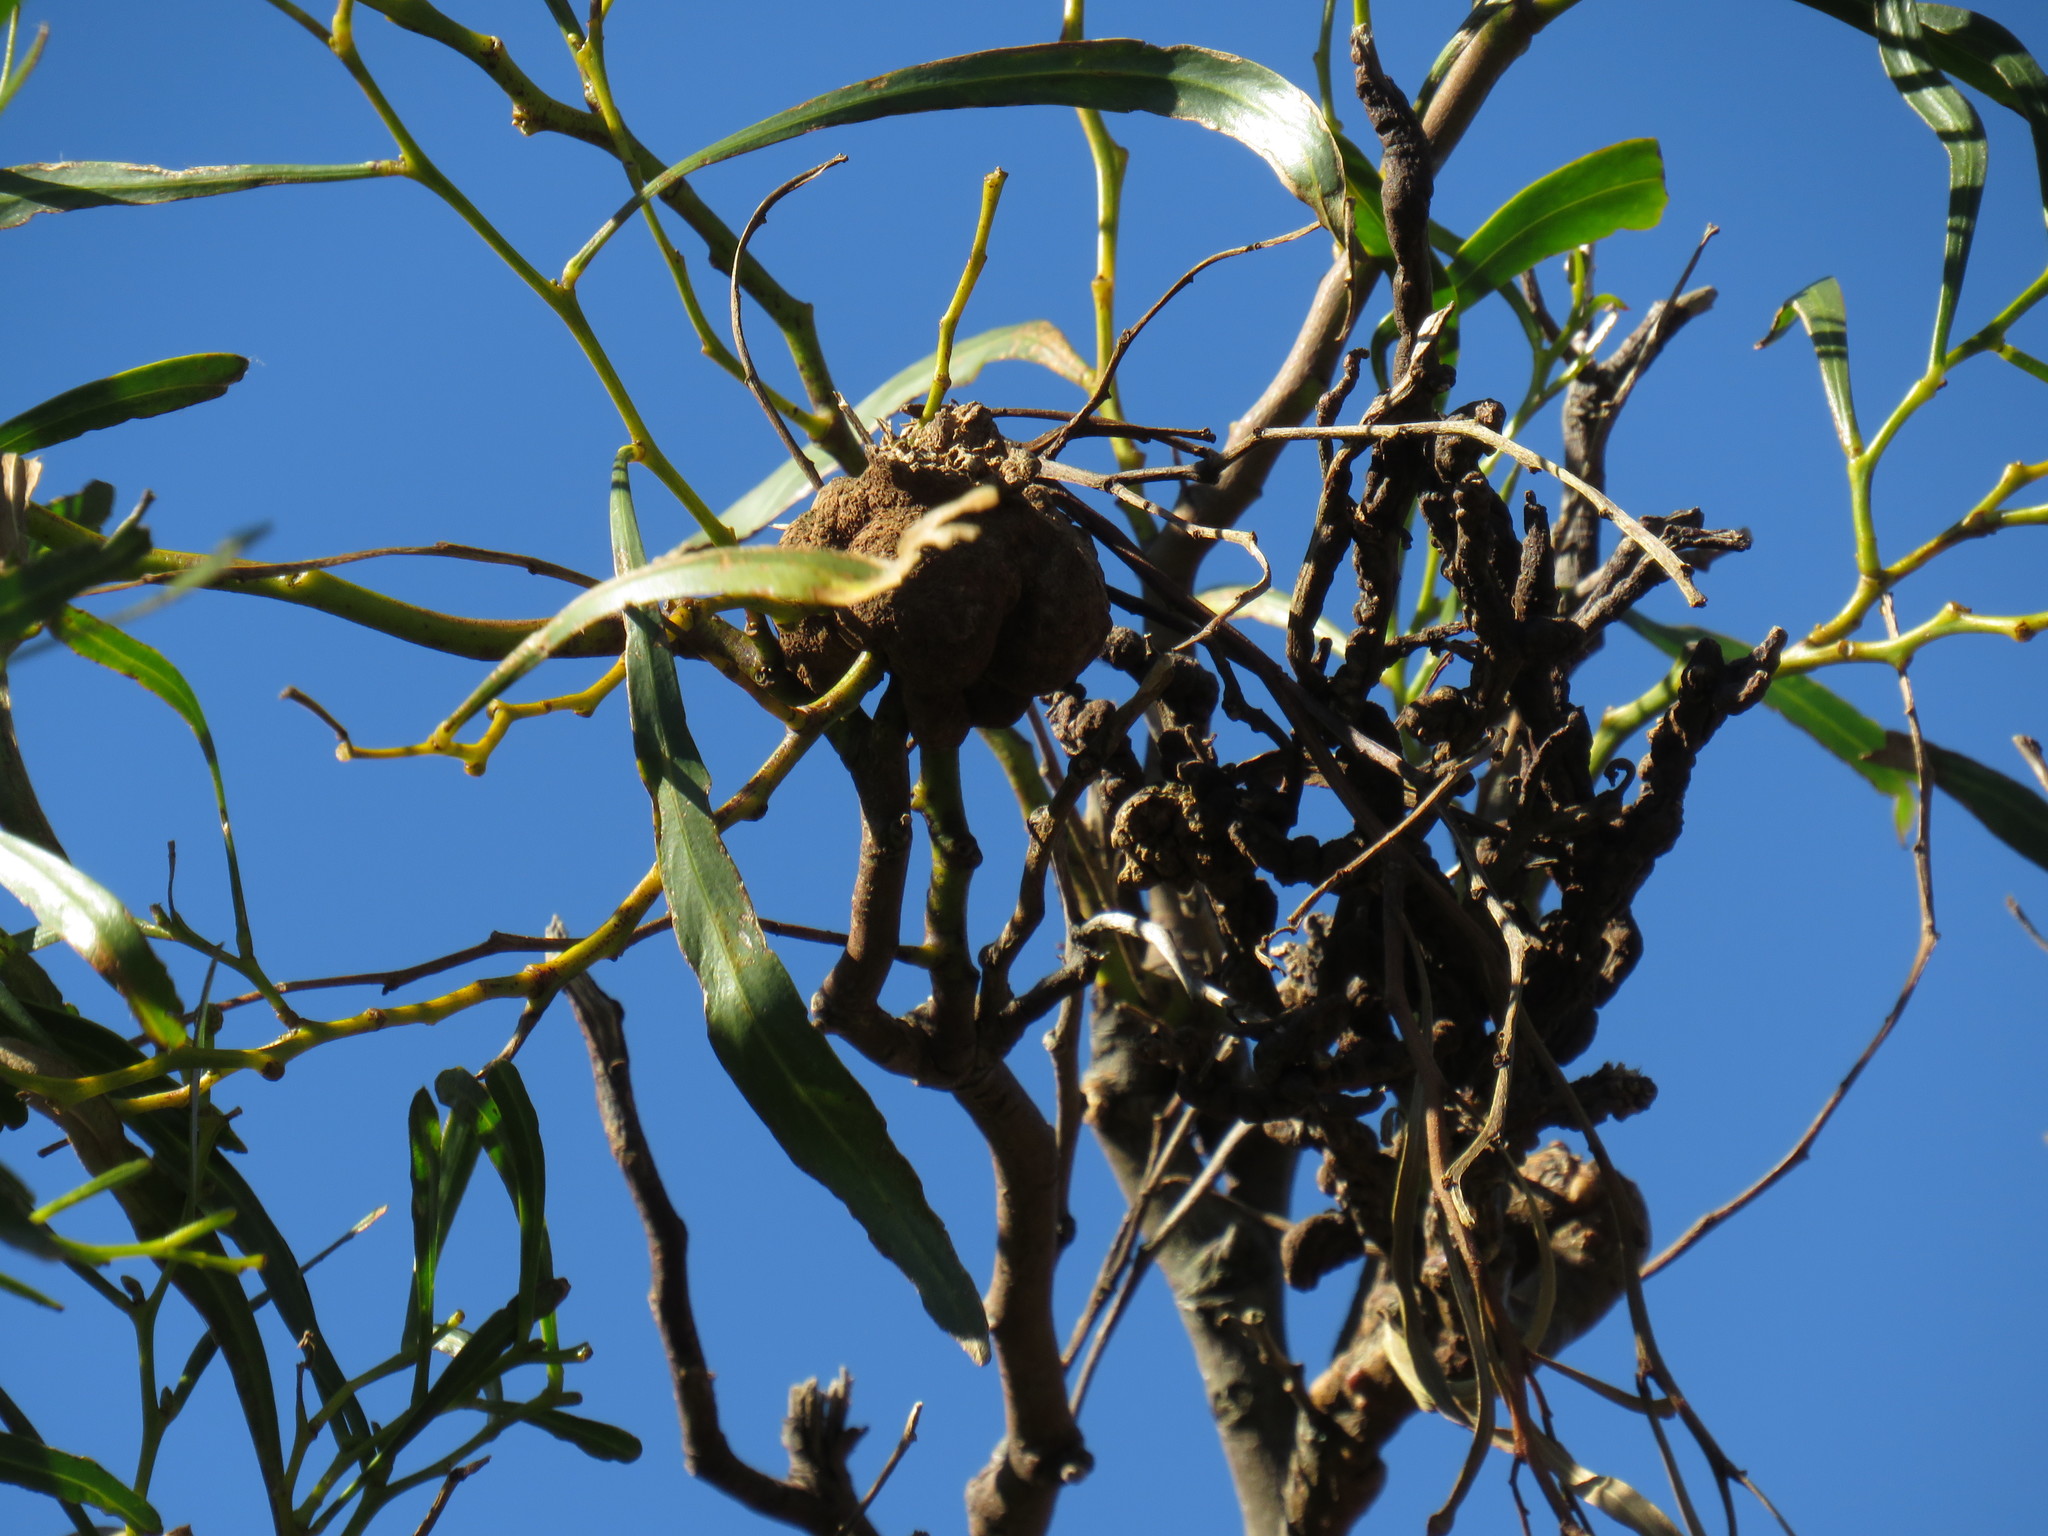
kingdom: Fungi
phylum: Basidiomycota
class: Pucciniomycetes
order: Pucciniales
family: Uromycladiaceae
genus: Uromycladium
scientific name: Uromycladium morrisii
